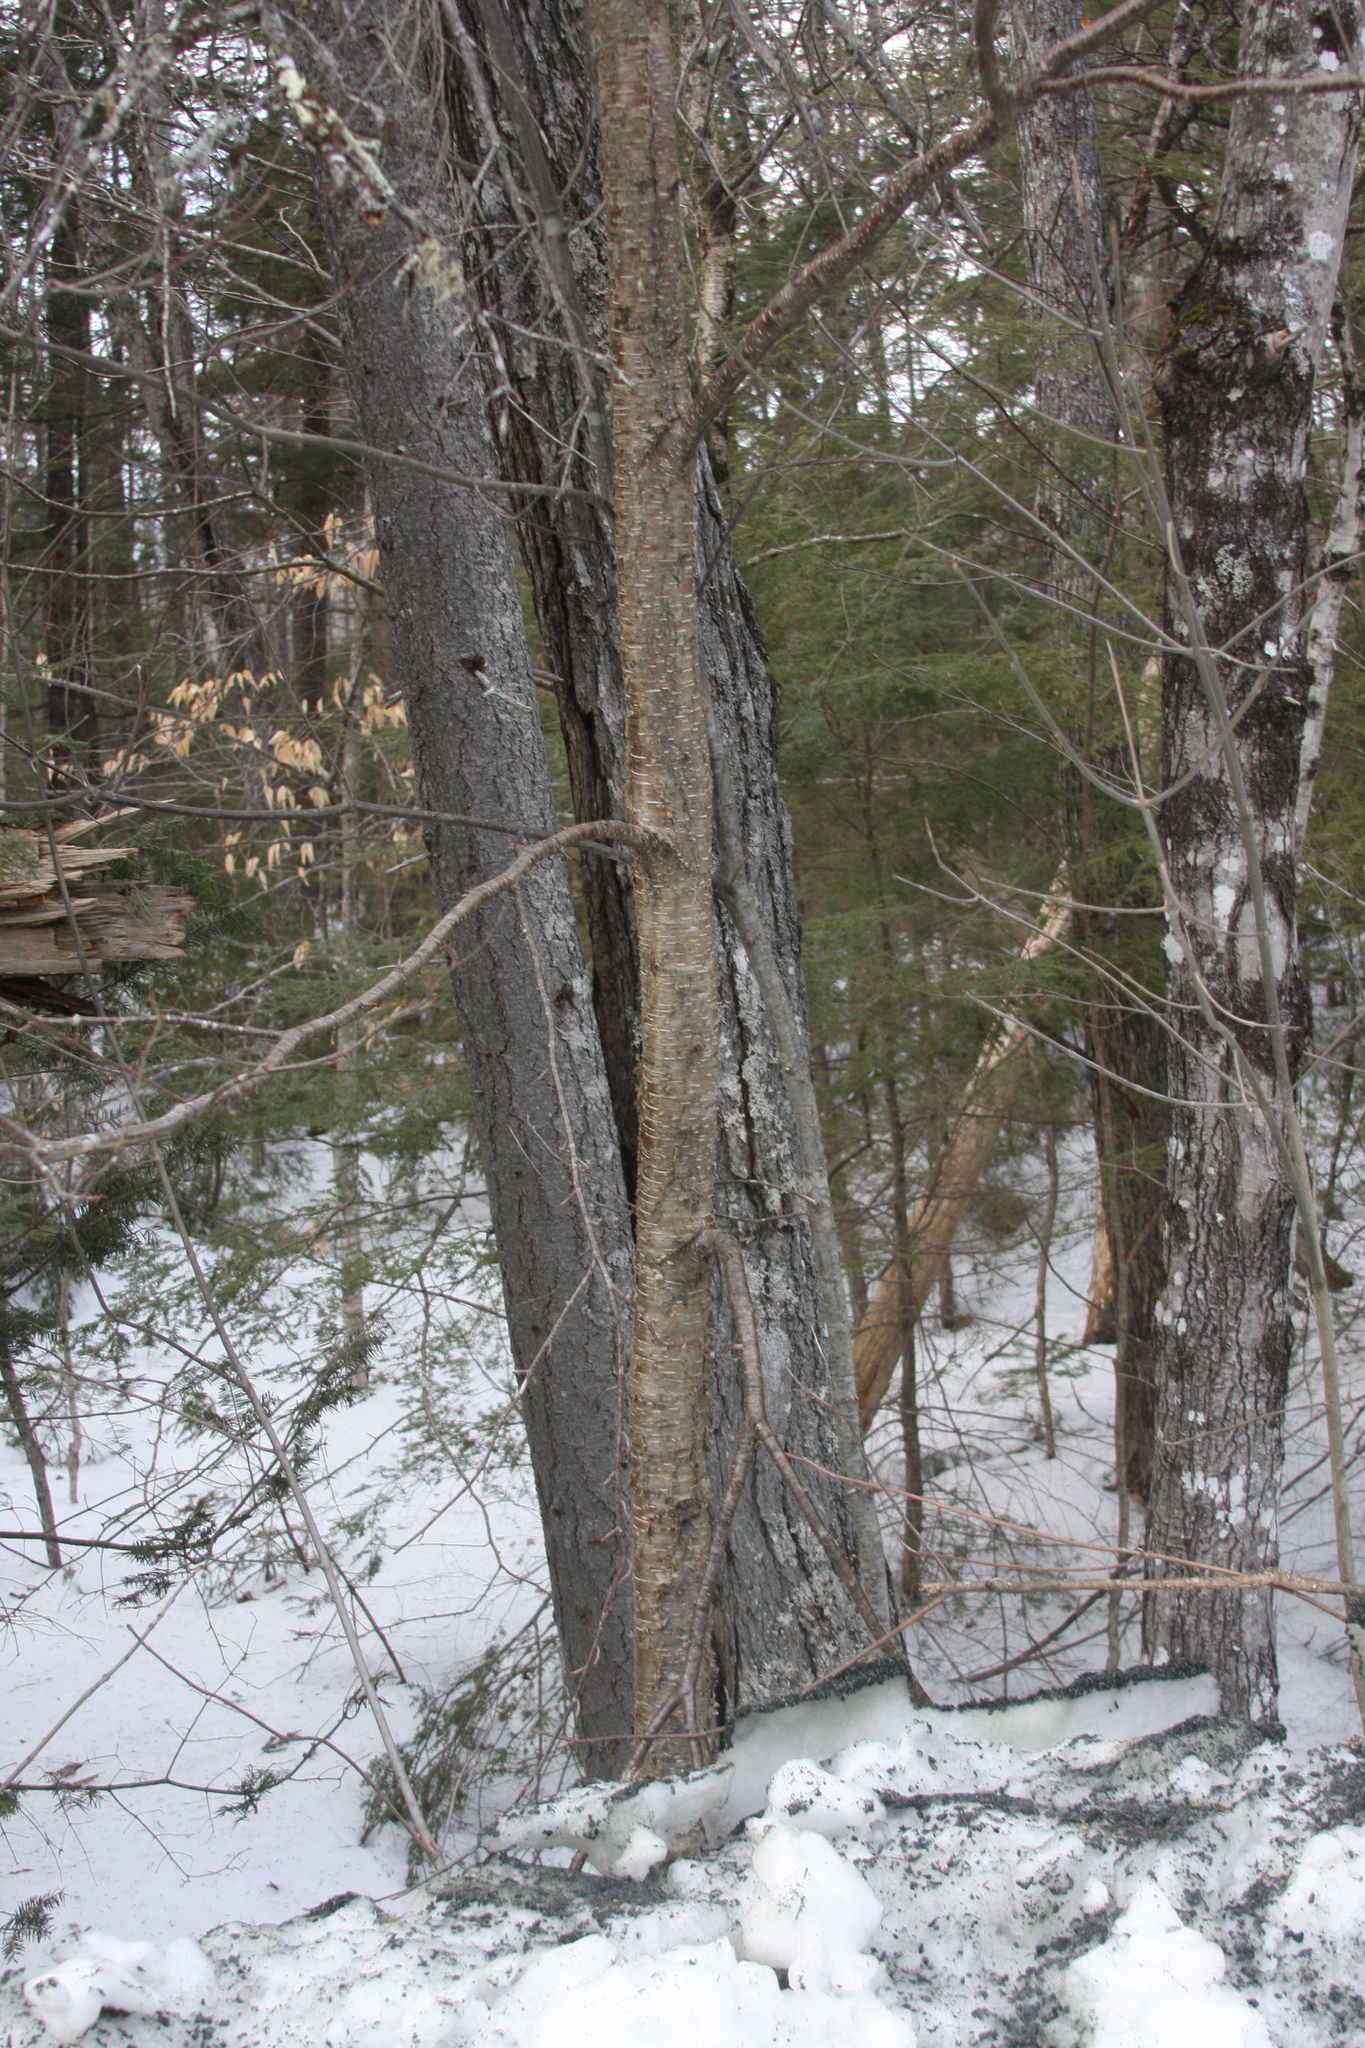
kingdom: Plantae
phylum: Tracheophyta
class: Magnoliopsida
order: Fagales
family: Betulaceae
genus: Betula
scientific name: Betula alleghaniensis
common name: Yellow birch
